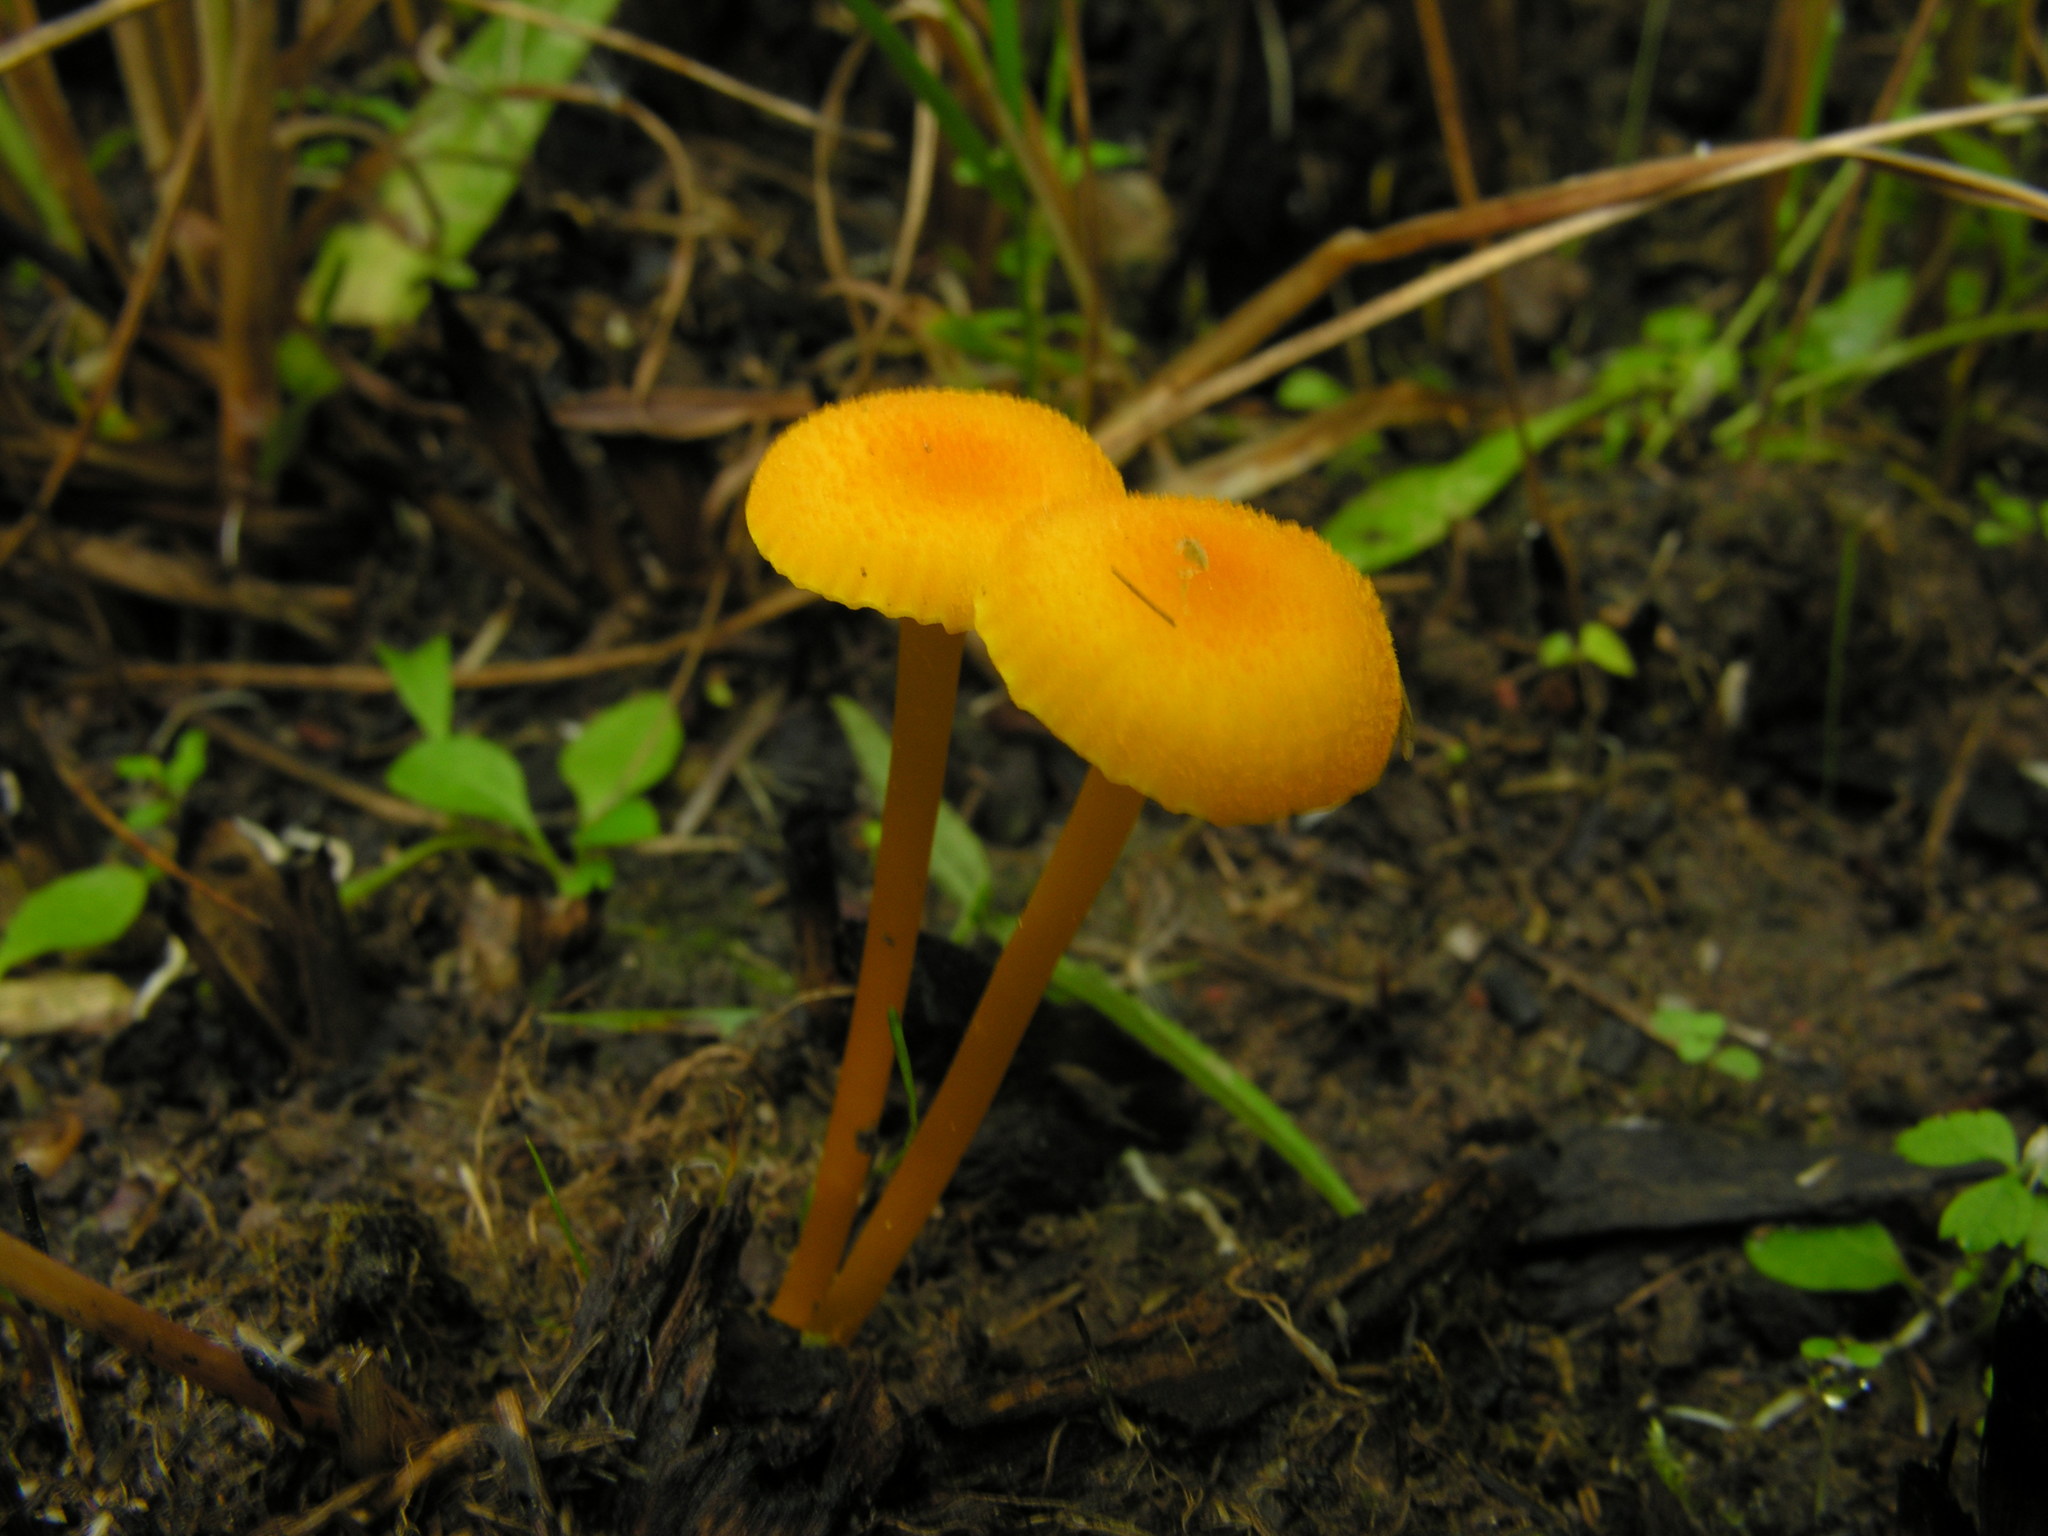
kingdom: Fungi
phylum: Basidiomycota
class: Agaricomycetes
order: Agaricales
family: Hygrophoraceae
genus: Hygrocybe
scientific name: Hygrocybe cantharellus
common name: Goblet waxcap
